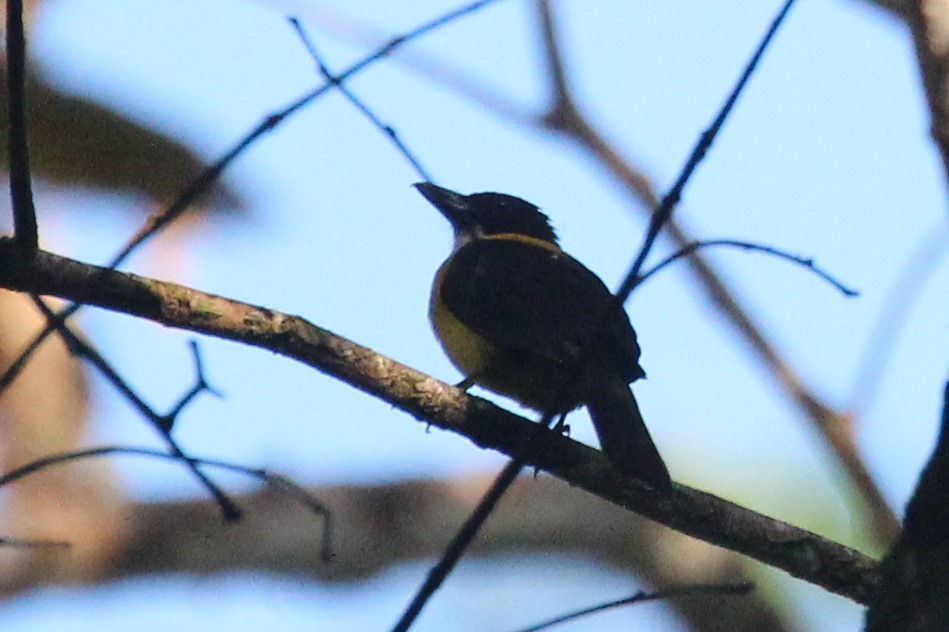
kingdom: Animalia
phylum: Chordata
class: Aves
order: Passeriformes
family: Thraupidae
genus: Lanio
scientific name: Lanio leucothorax
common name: White-throated shrike-tanager
